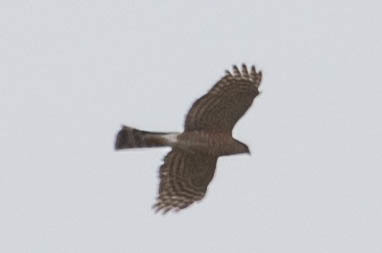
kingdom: Animalia
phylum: Chordata
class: Aves
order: Accipitriformes
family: Accipitridae
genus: Accipiter
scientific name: Accipiter striatus
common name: Sharp-shinned hawk
